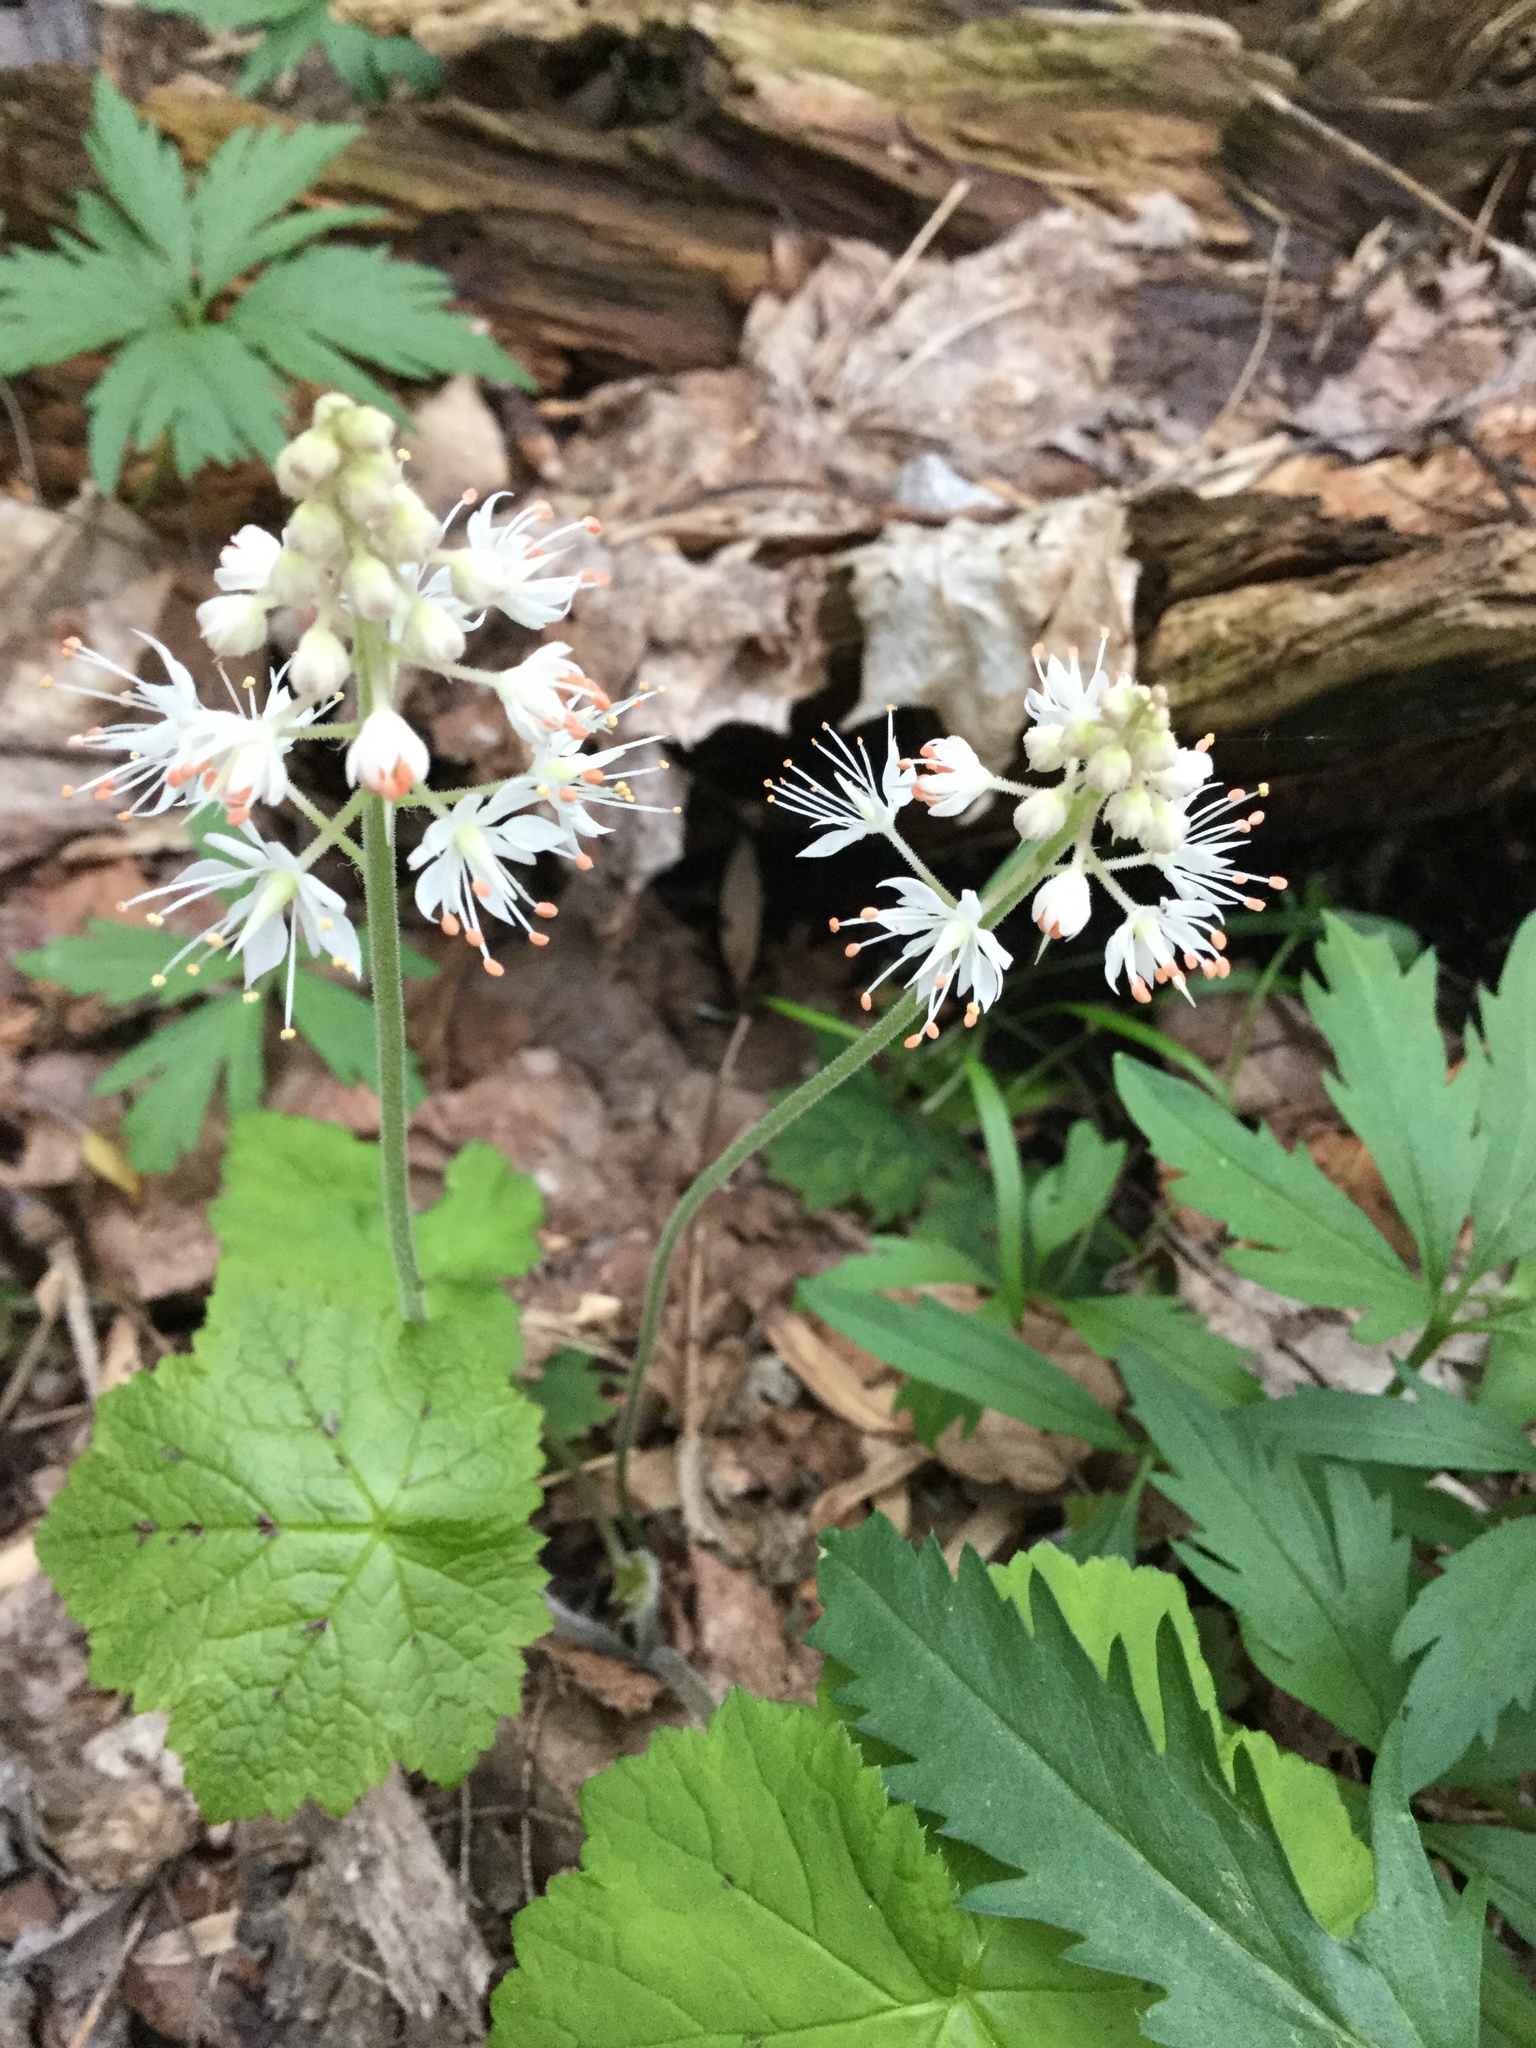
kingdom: Plantae
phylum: Tracheophyta
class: Magnoliopsida
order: Saxifragales
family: Saxifragaceae
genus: Tiarella
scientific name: Tiarella stolonifera
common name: Stoloniferous foamflower
